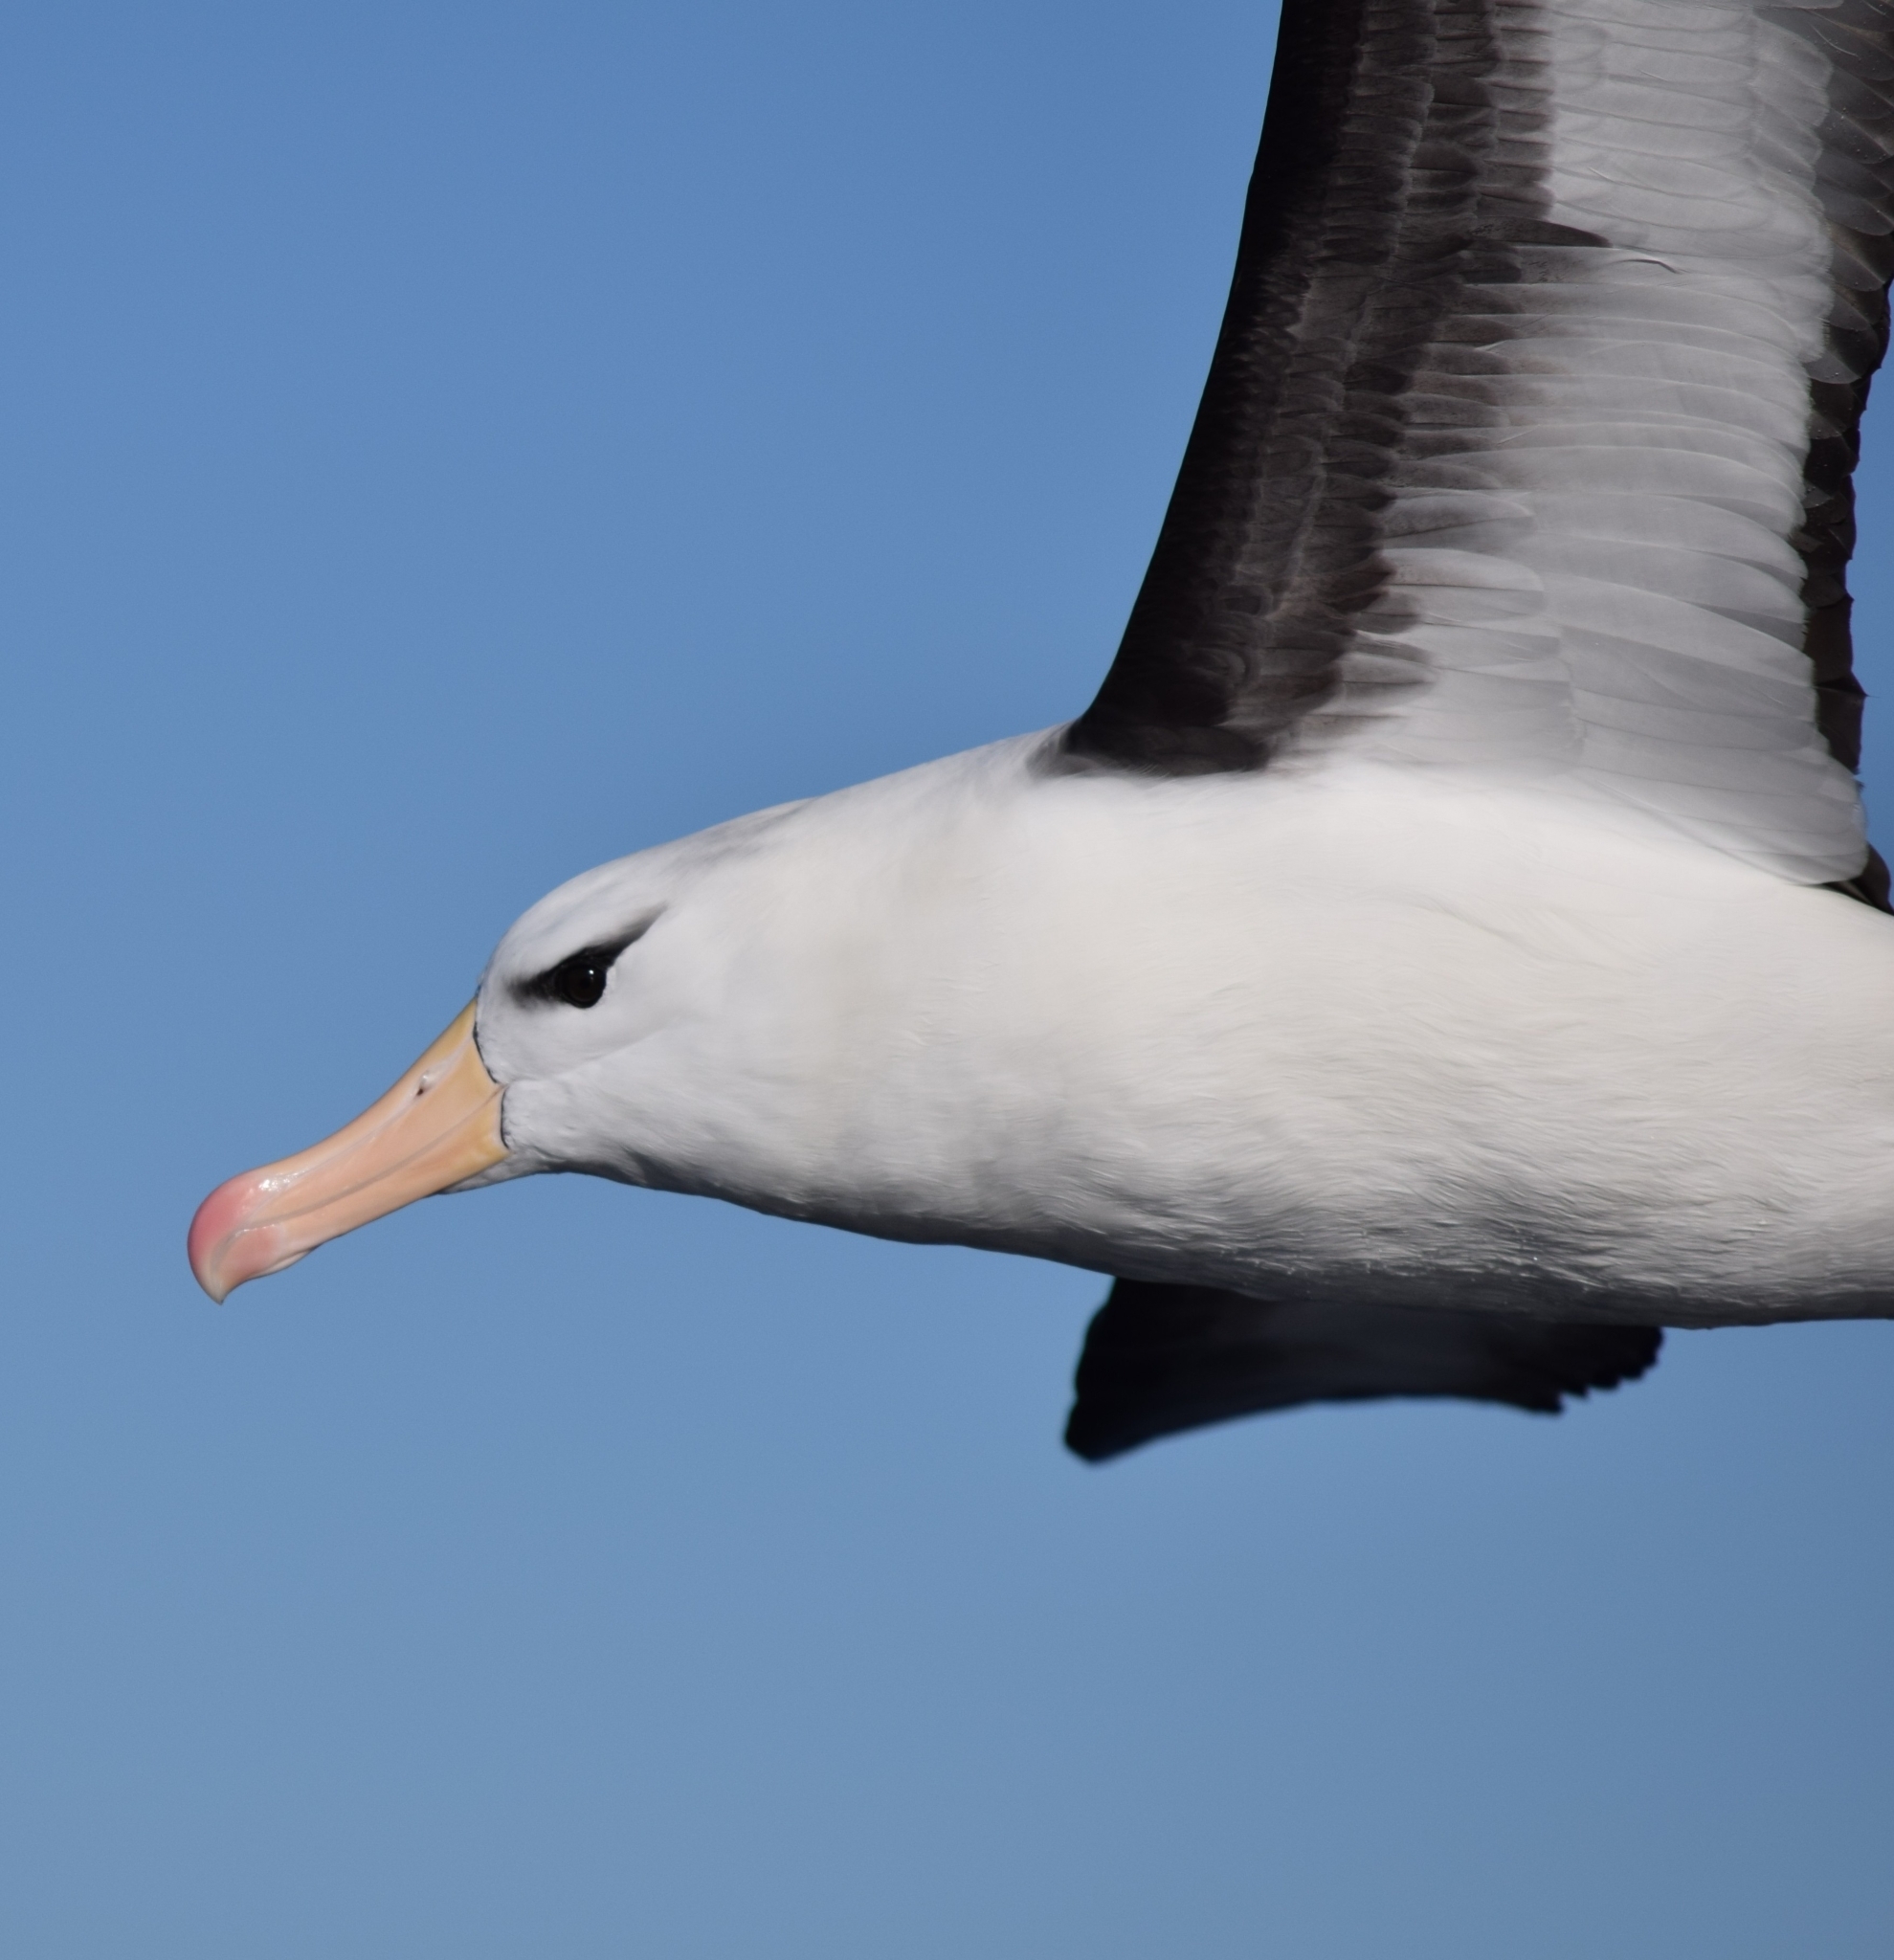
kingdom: Animalia
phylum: Chordata
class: Aves
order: Procellariiformes
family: Diomedeidae
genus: Thalassarche
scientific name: Thalassarche melanophris
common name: Black-browed albatross
